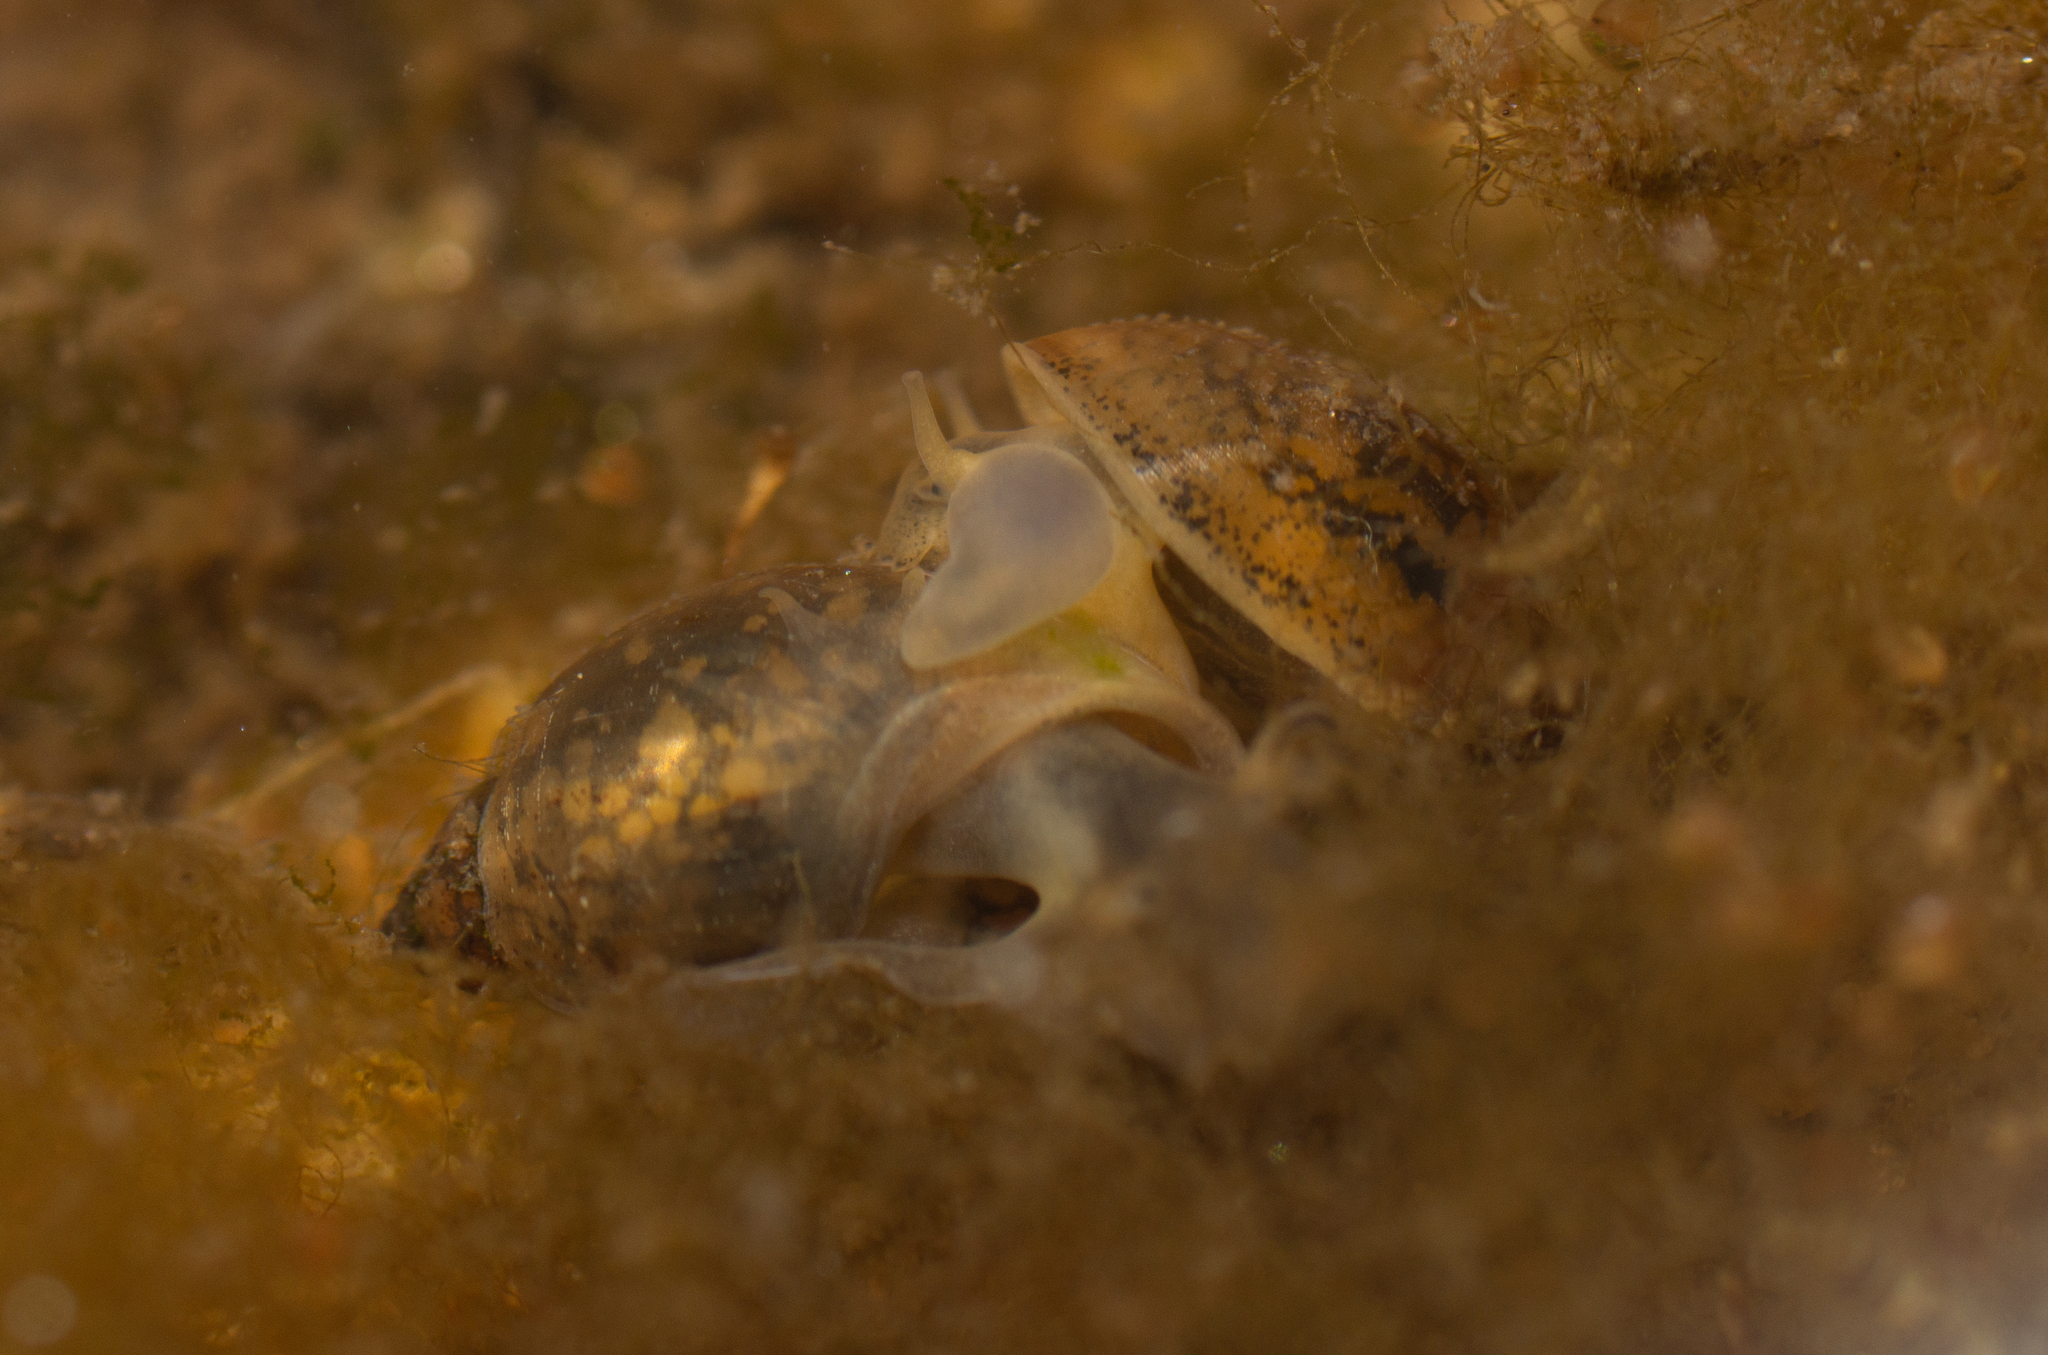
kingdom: Animalia
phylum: Mollusca
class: Gastropoda
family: Physidae
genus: Physella
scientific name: Physella acuta
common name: European physa
